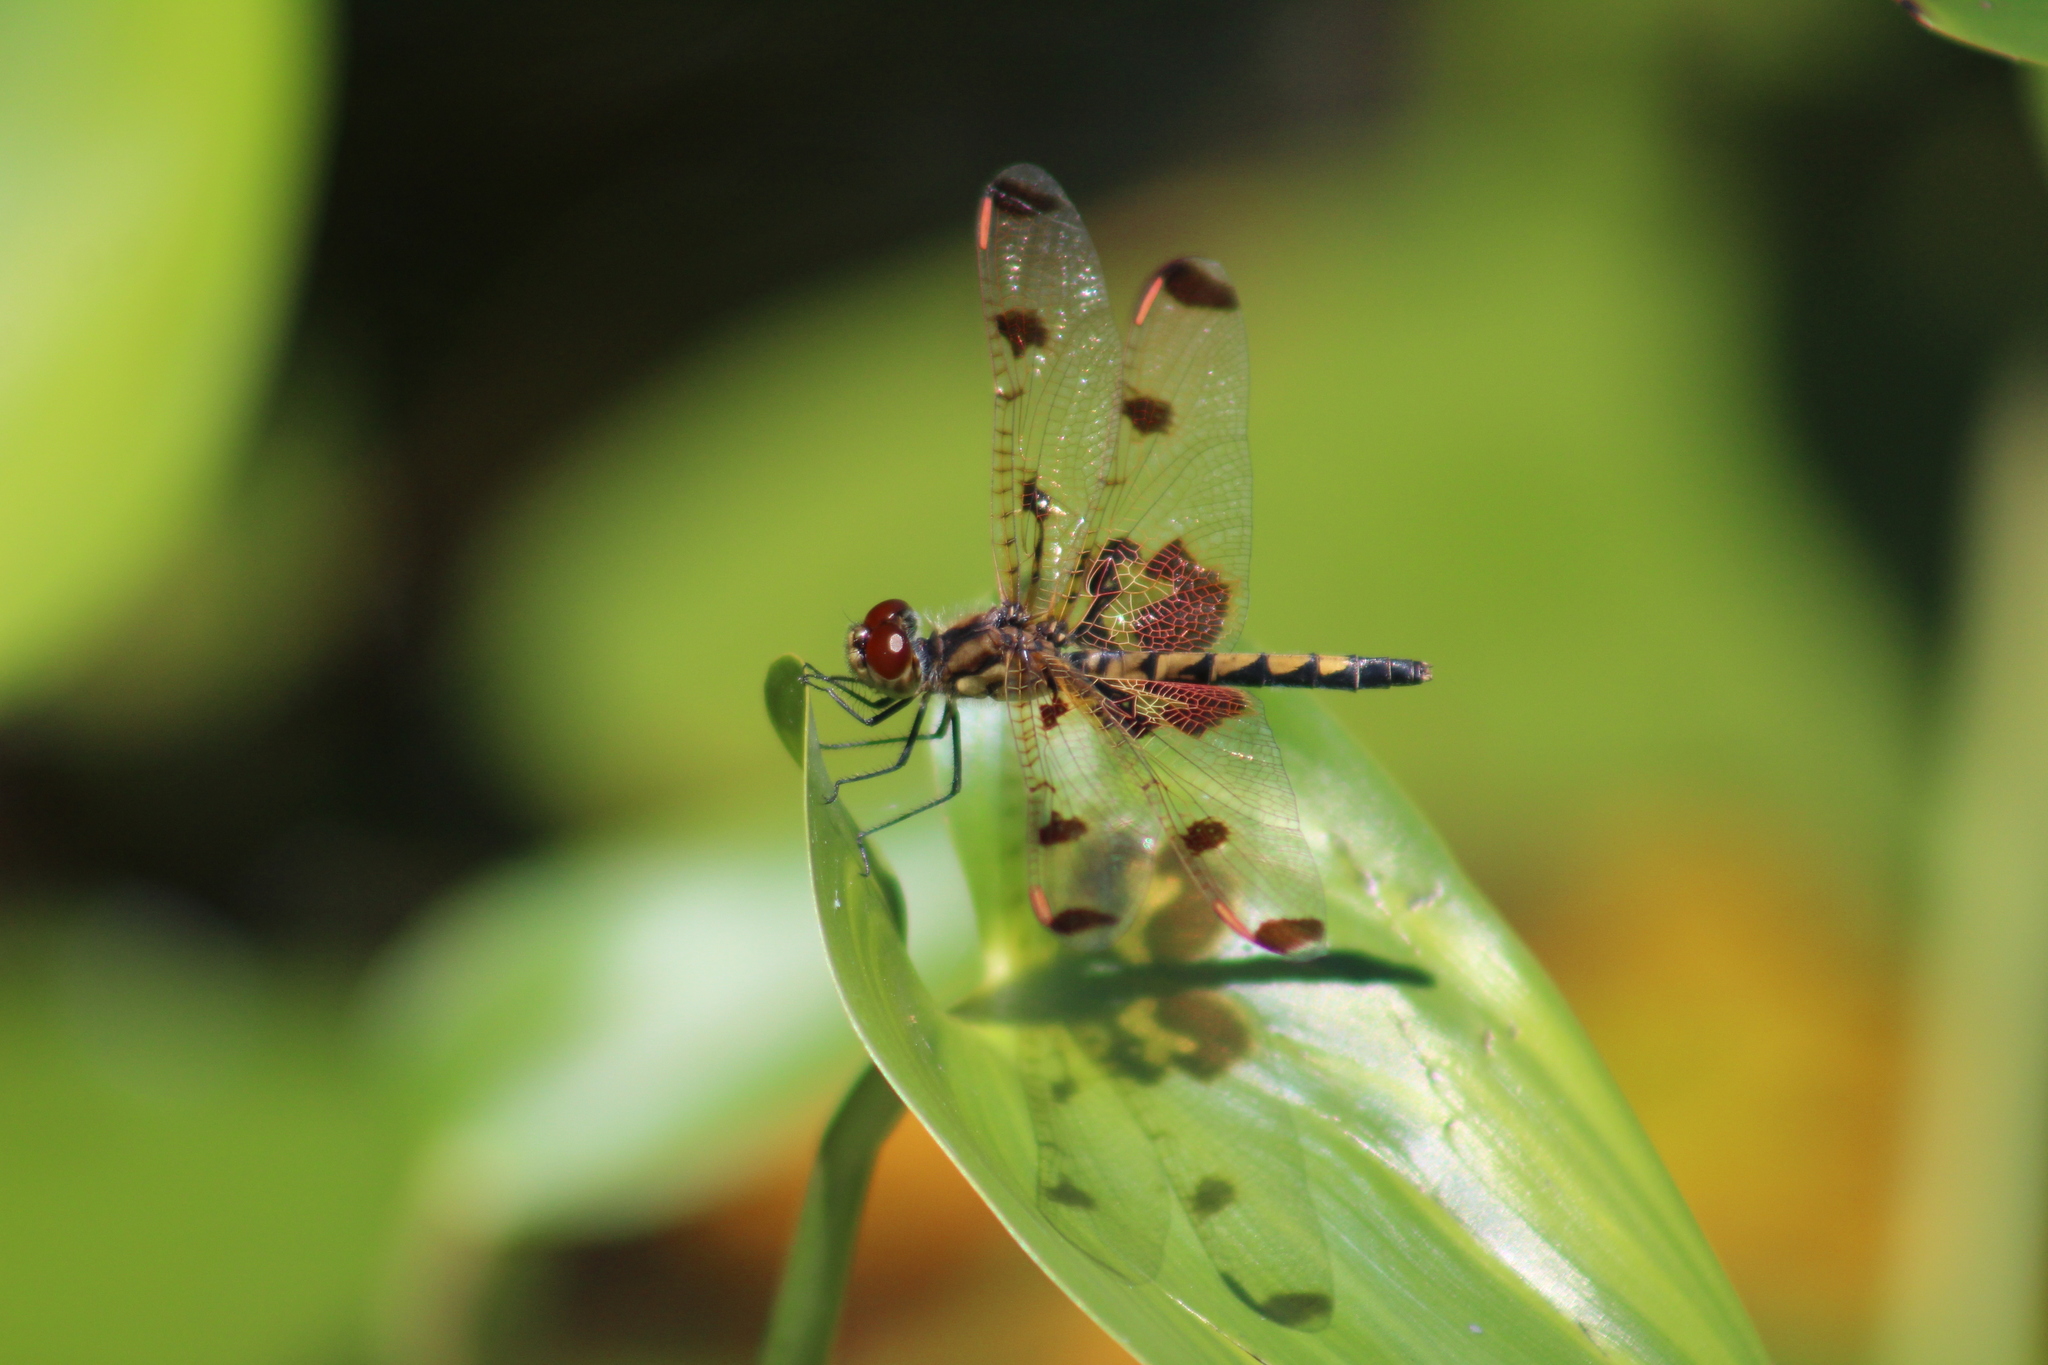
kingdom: Animalia
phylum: Arthropoda
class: Insecta
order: Odonata
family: Libellulidae
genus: Celithemis
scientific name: Celithemis elisa
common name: Calico pennant
